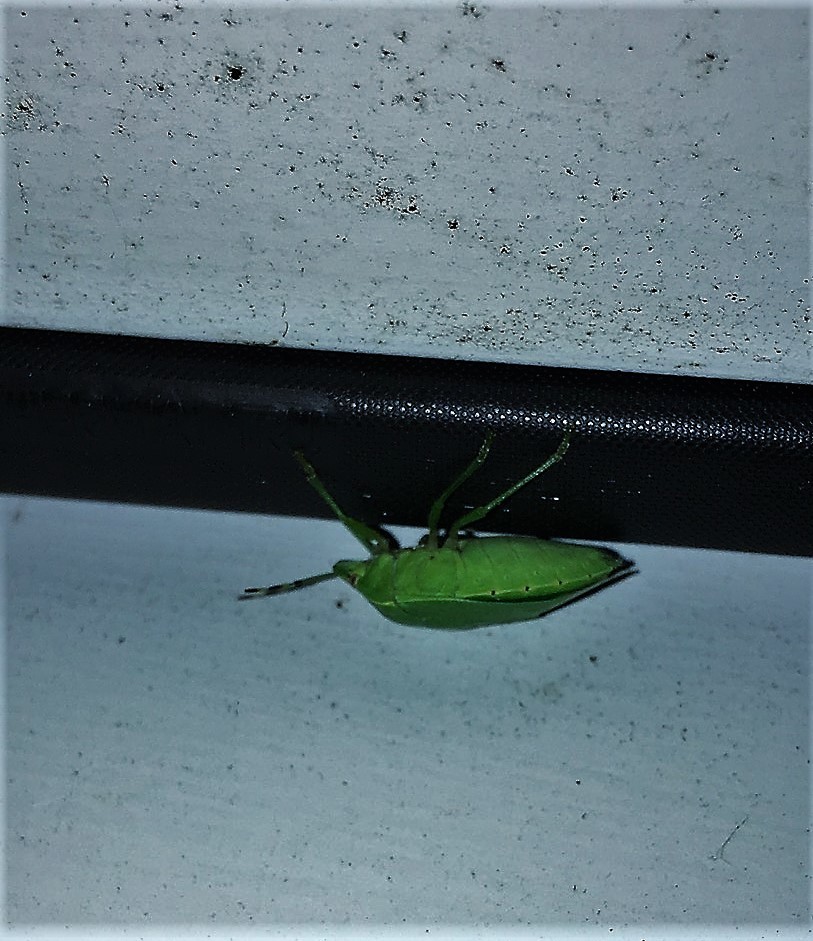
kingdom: Animalia
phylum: Arthropoda
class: Insecta
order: Hemiptera
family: Pentatomidae
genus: Chinavia
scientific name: Chinavia hilaris
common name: Green stink bug
